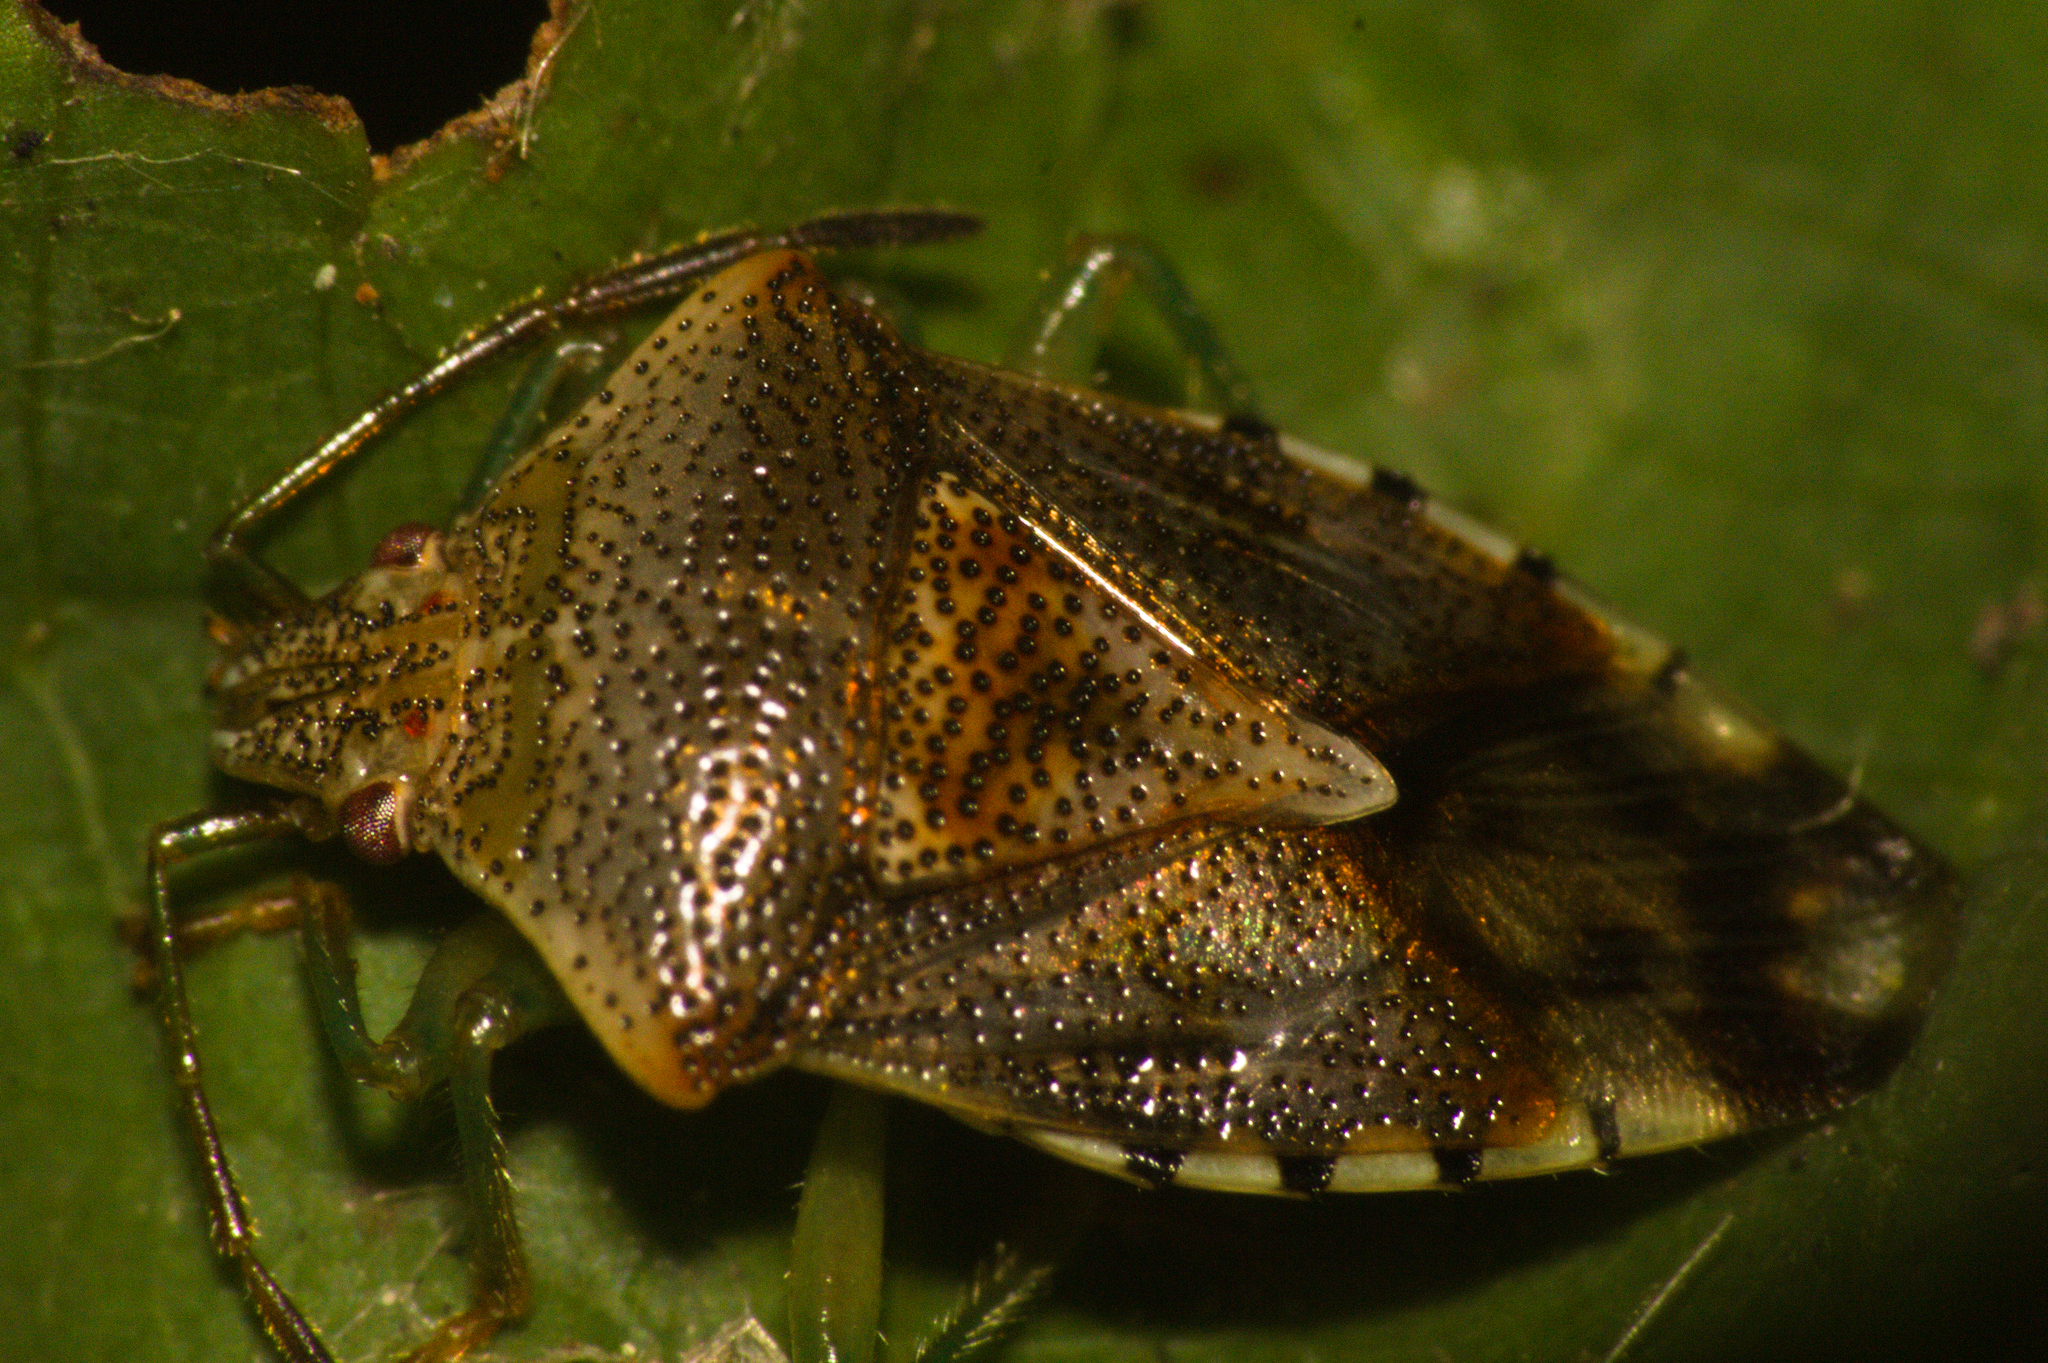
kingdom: Animalia
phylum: Arthropoda
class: Insecta
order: Hemiptera
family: Acanthosomatidae
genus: Elasmucha
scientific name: Elasmucha grisea
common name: Parent bug
